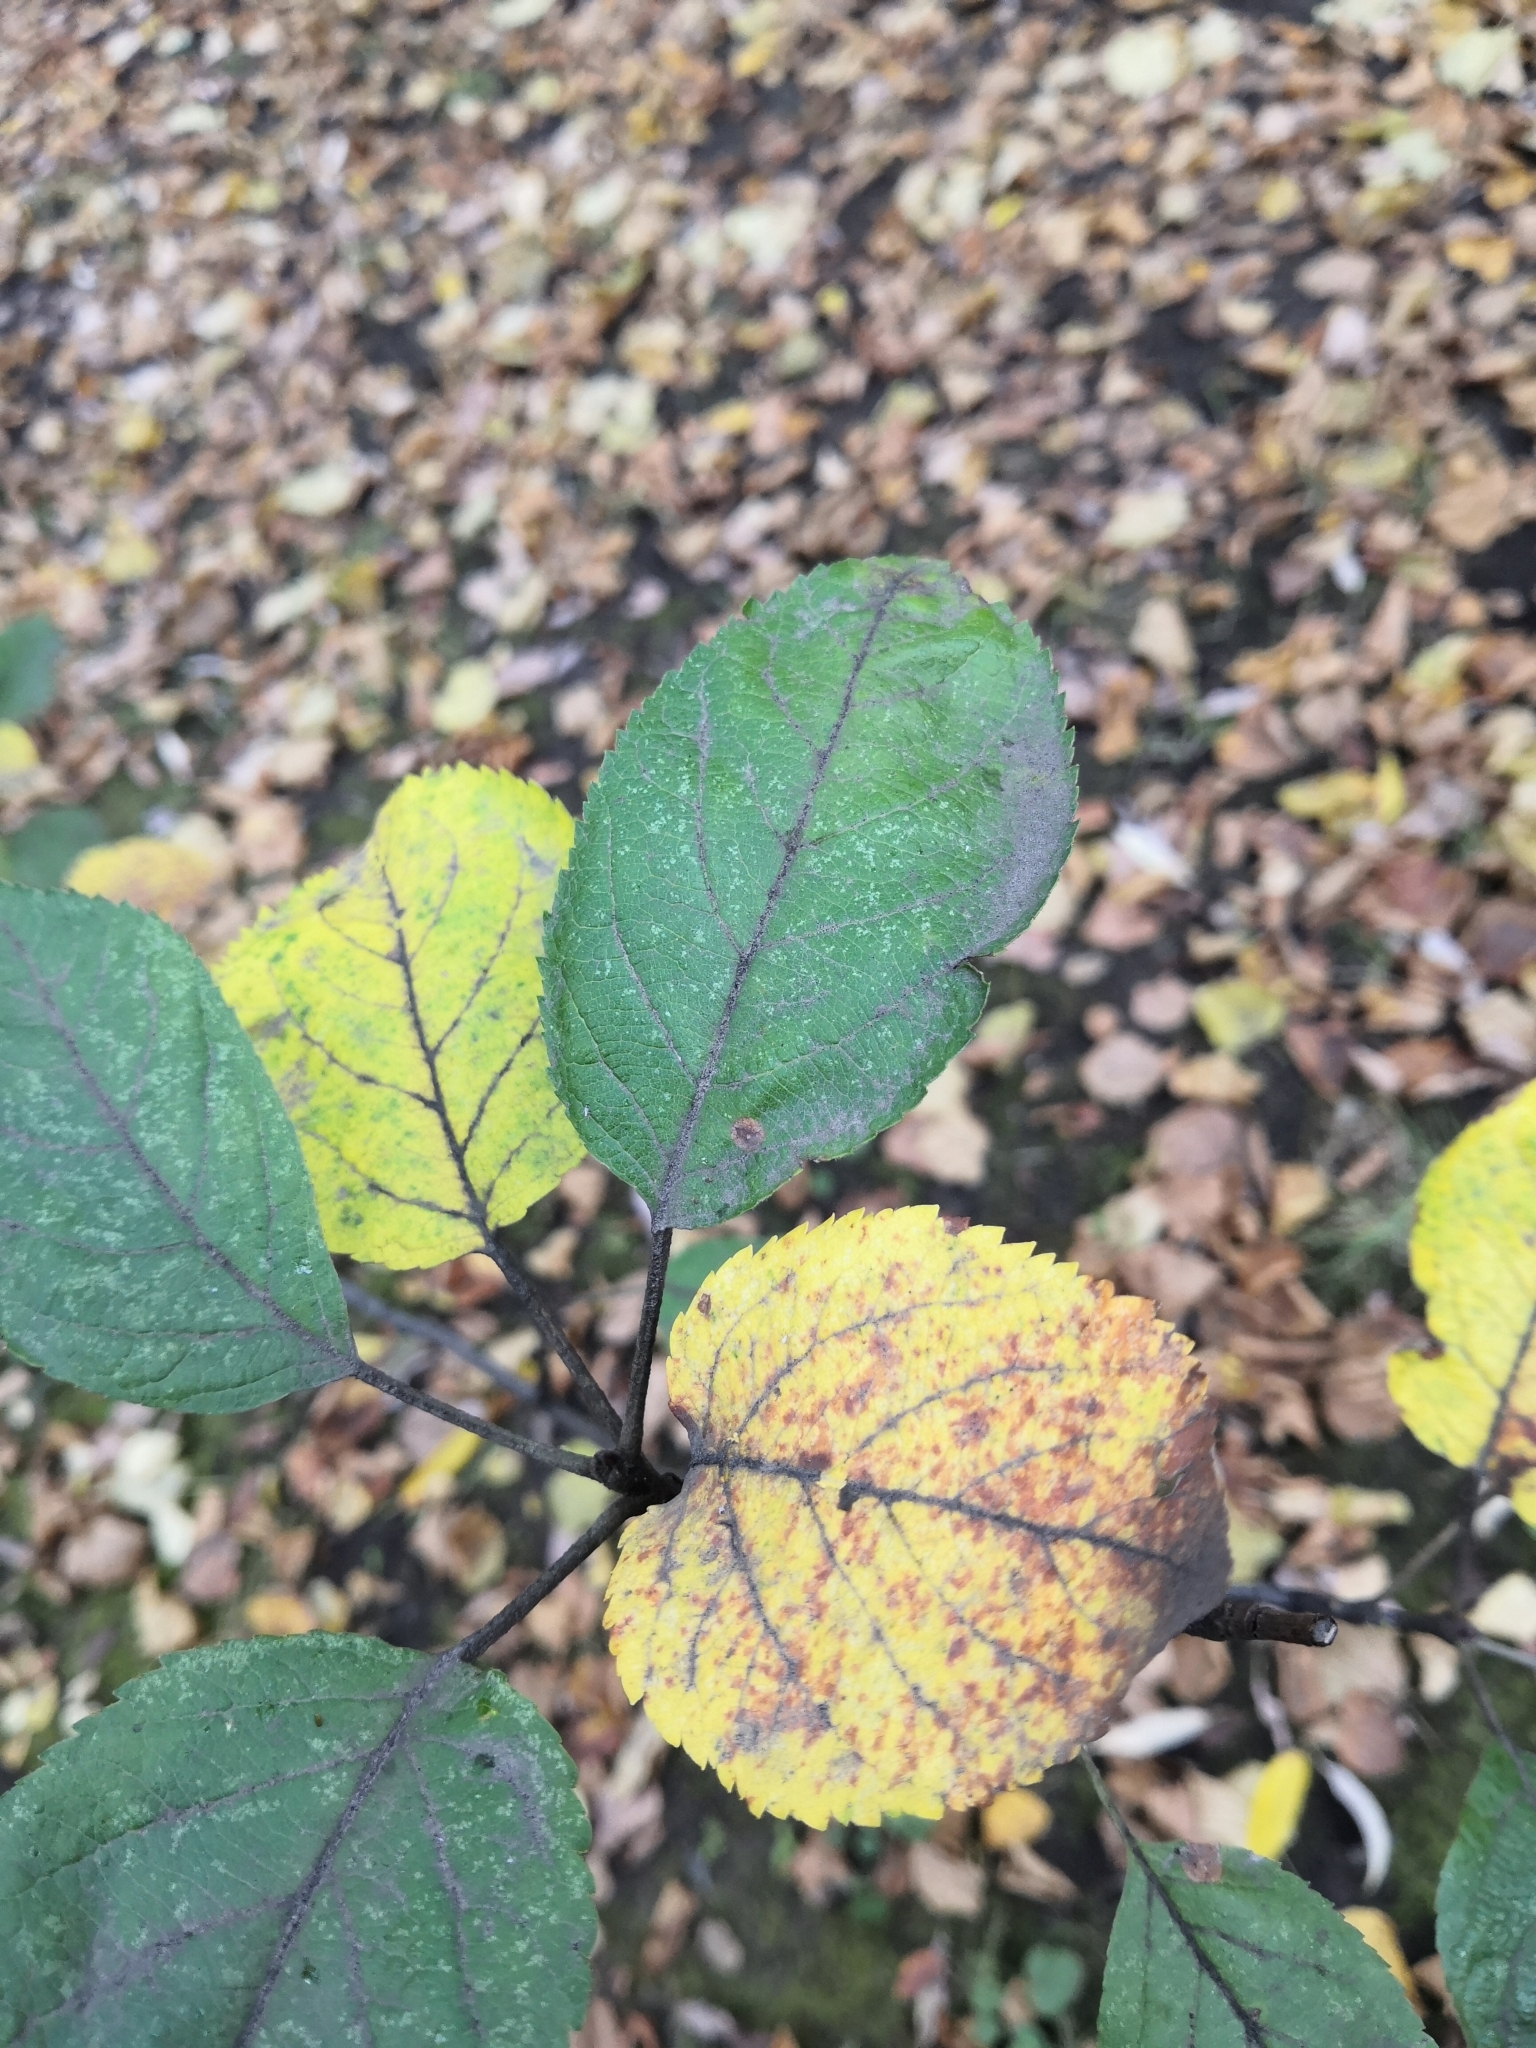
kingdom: Plantae
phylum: Tracheophyta
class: Magnoliopsida
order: Rosales
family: Rosaceae
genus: Malus
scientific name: Malus domestica
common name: Apple
